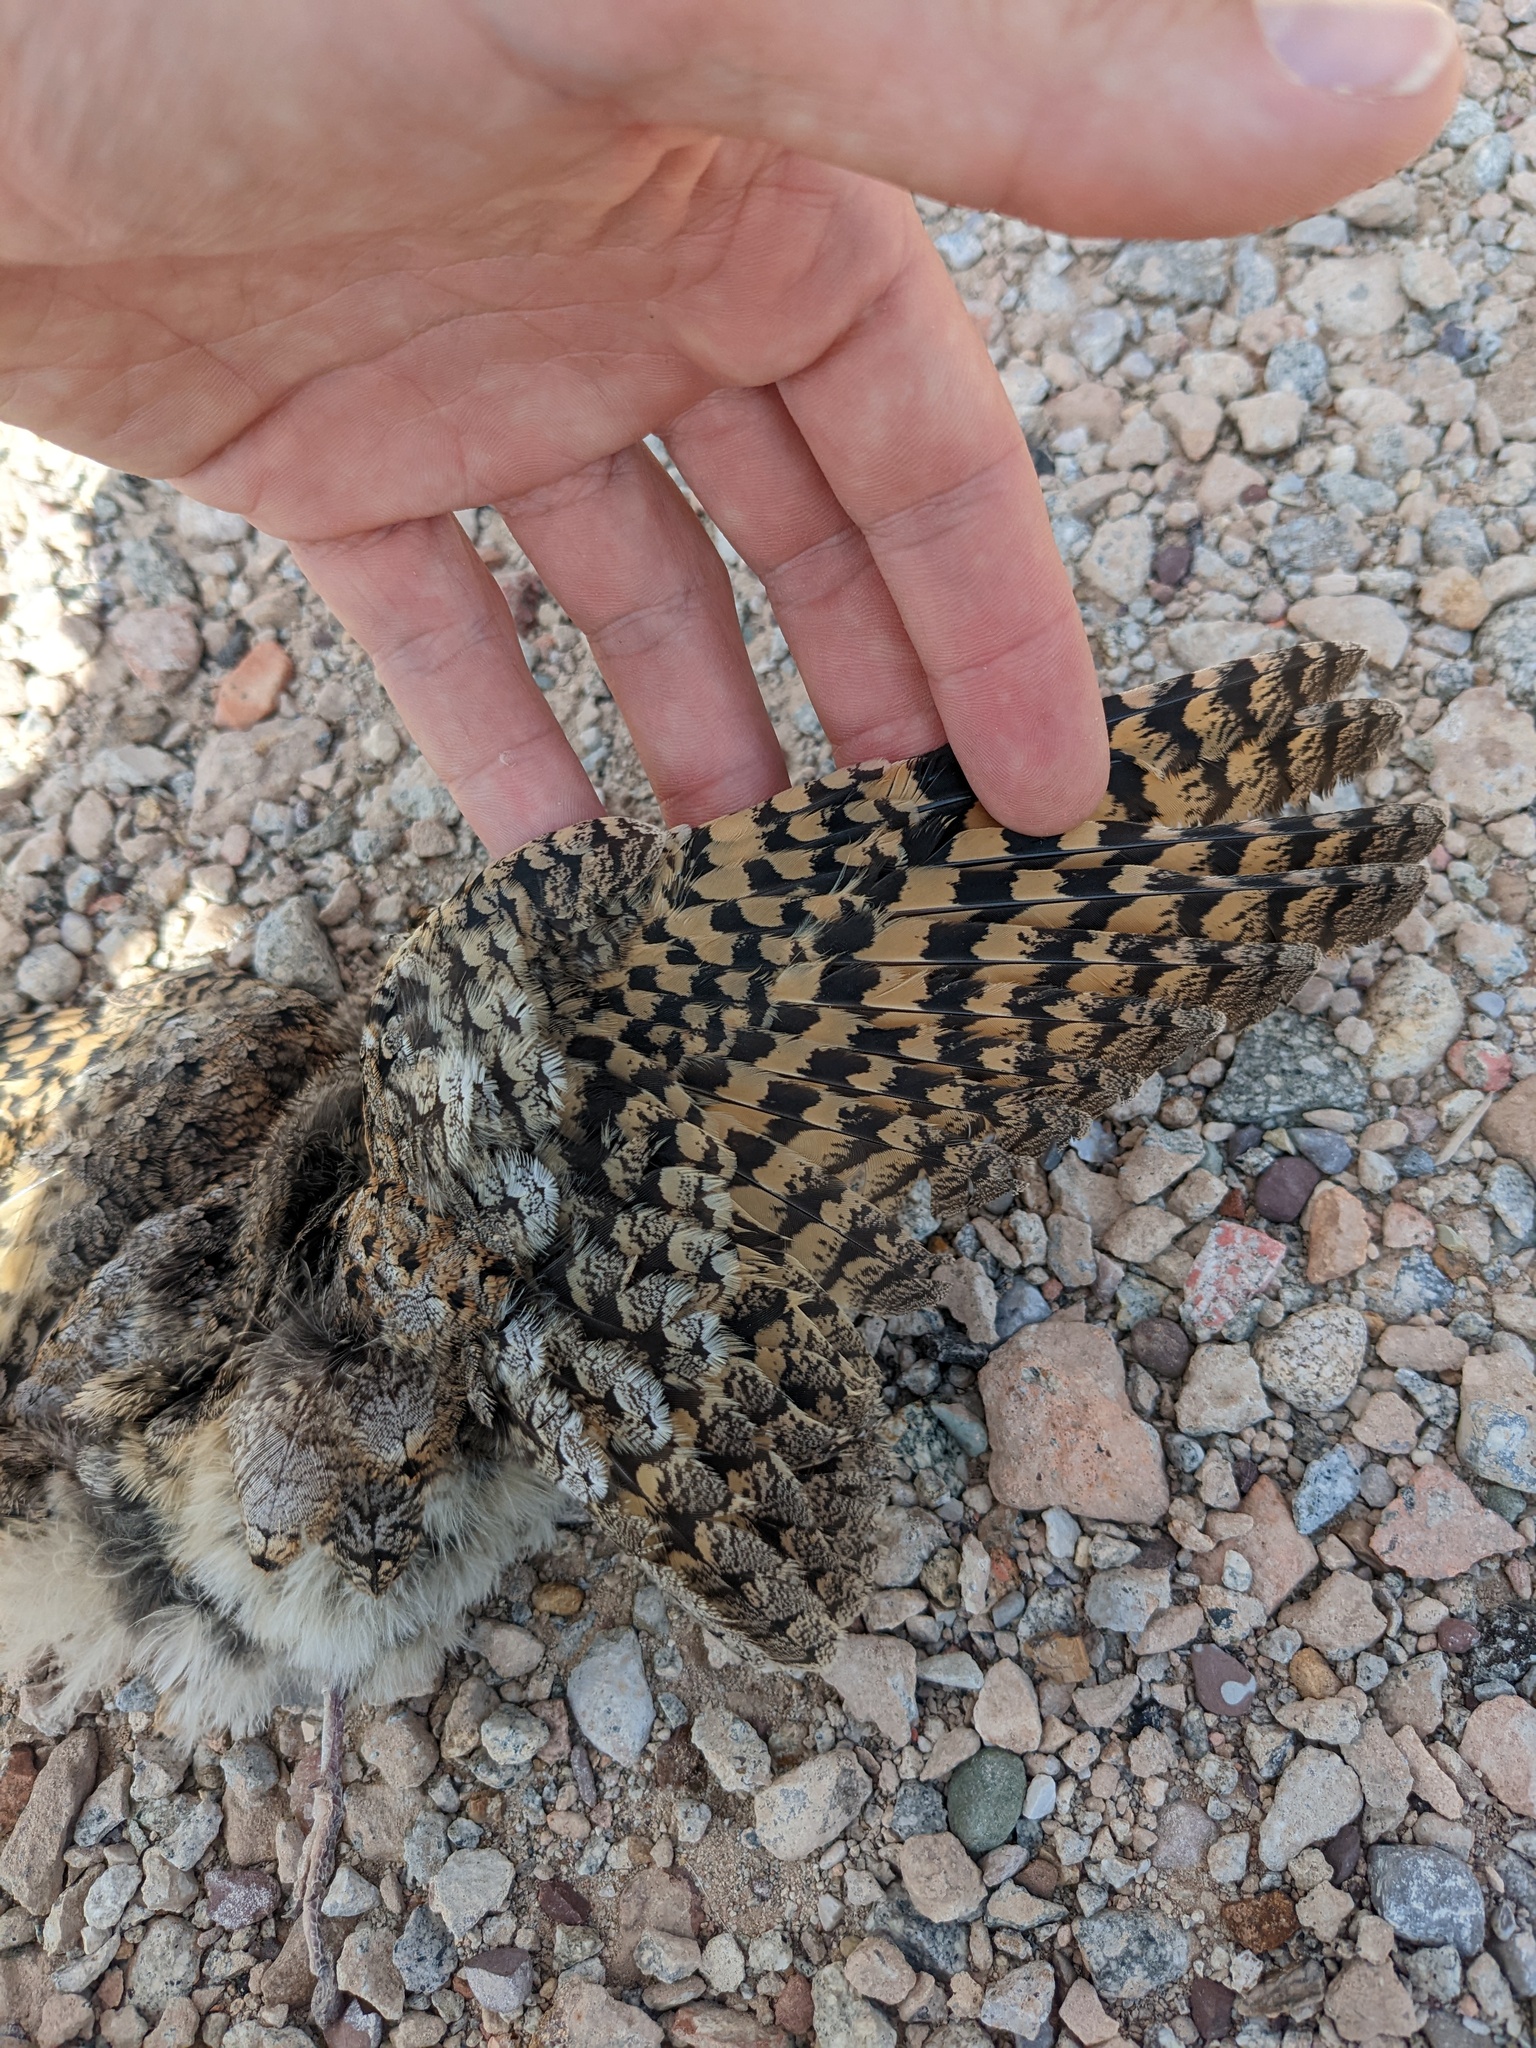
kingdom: Animalia
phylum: Chordata
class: Aves
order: Caprimulgiformes
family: Caprimulgidae
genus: Phalaenoptilus
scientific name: Phalaenoptilus nuttallii
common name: Common poorwill
